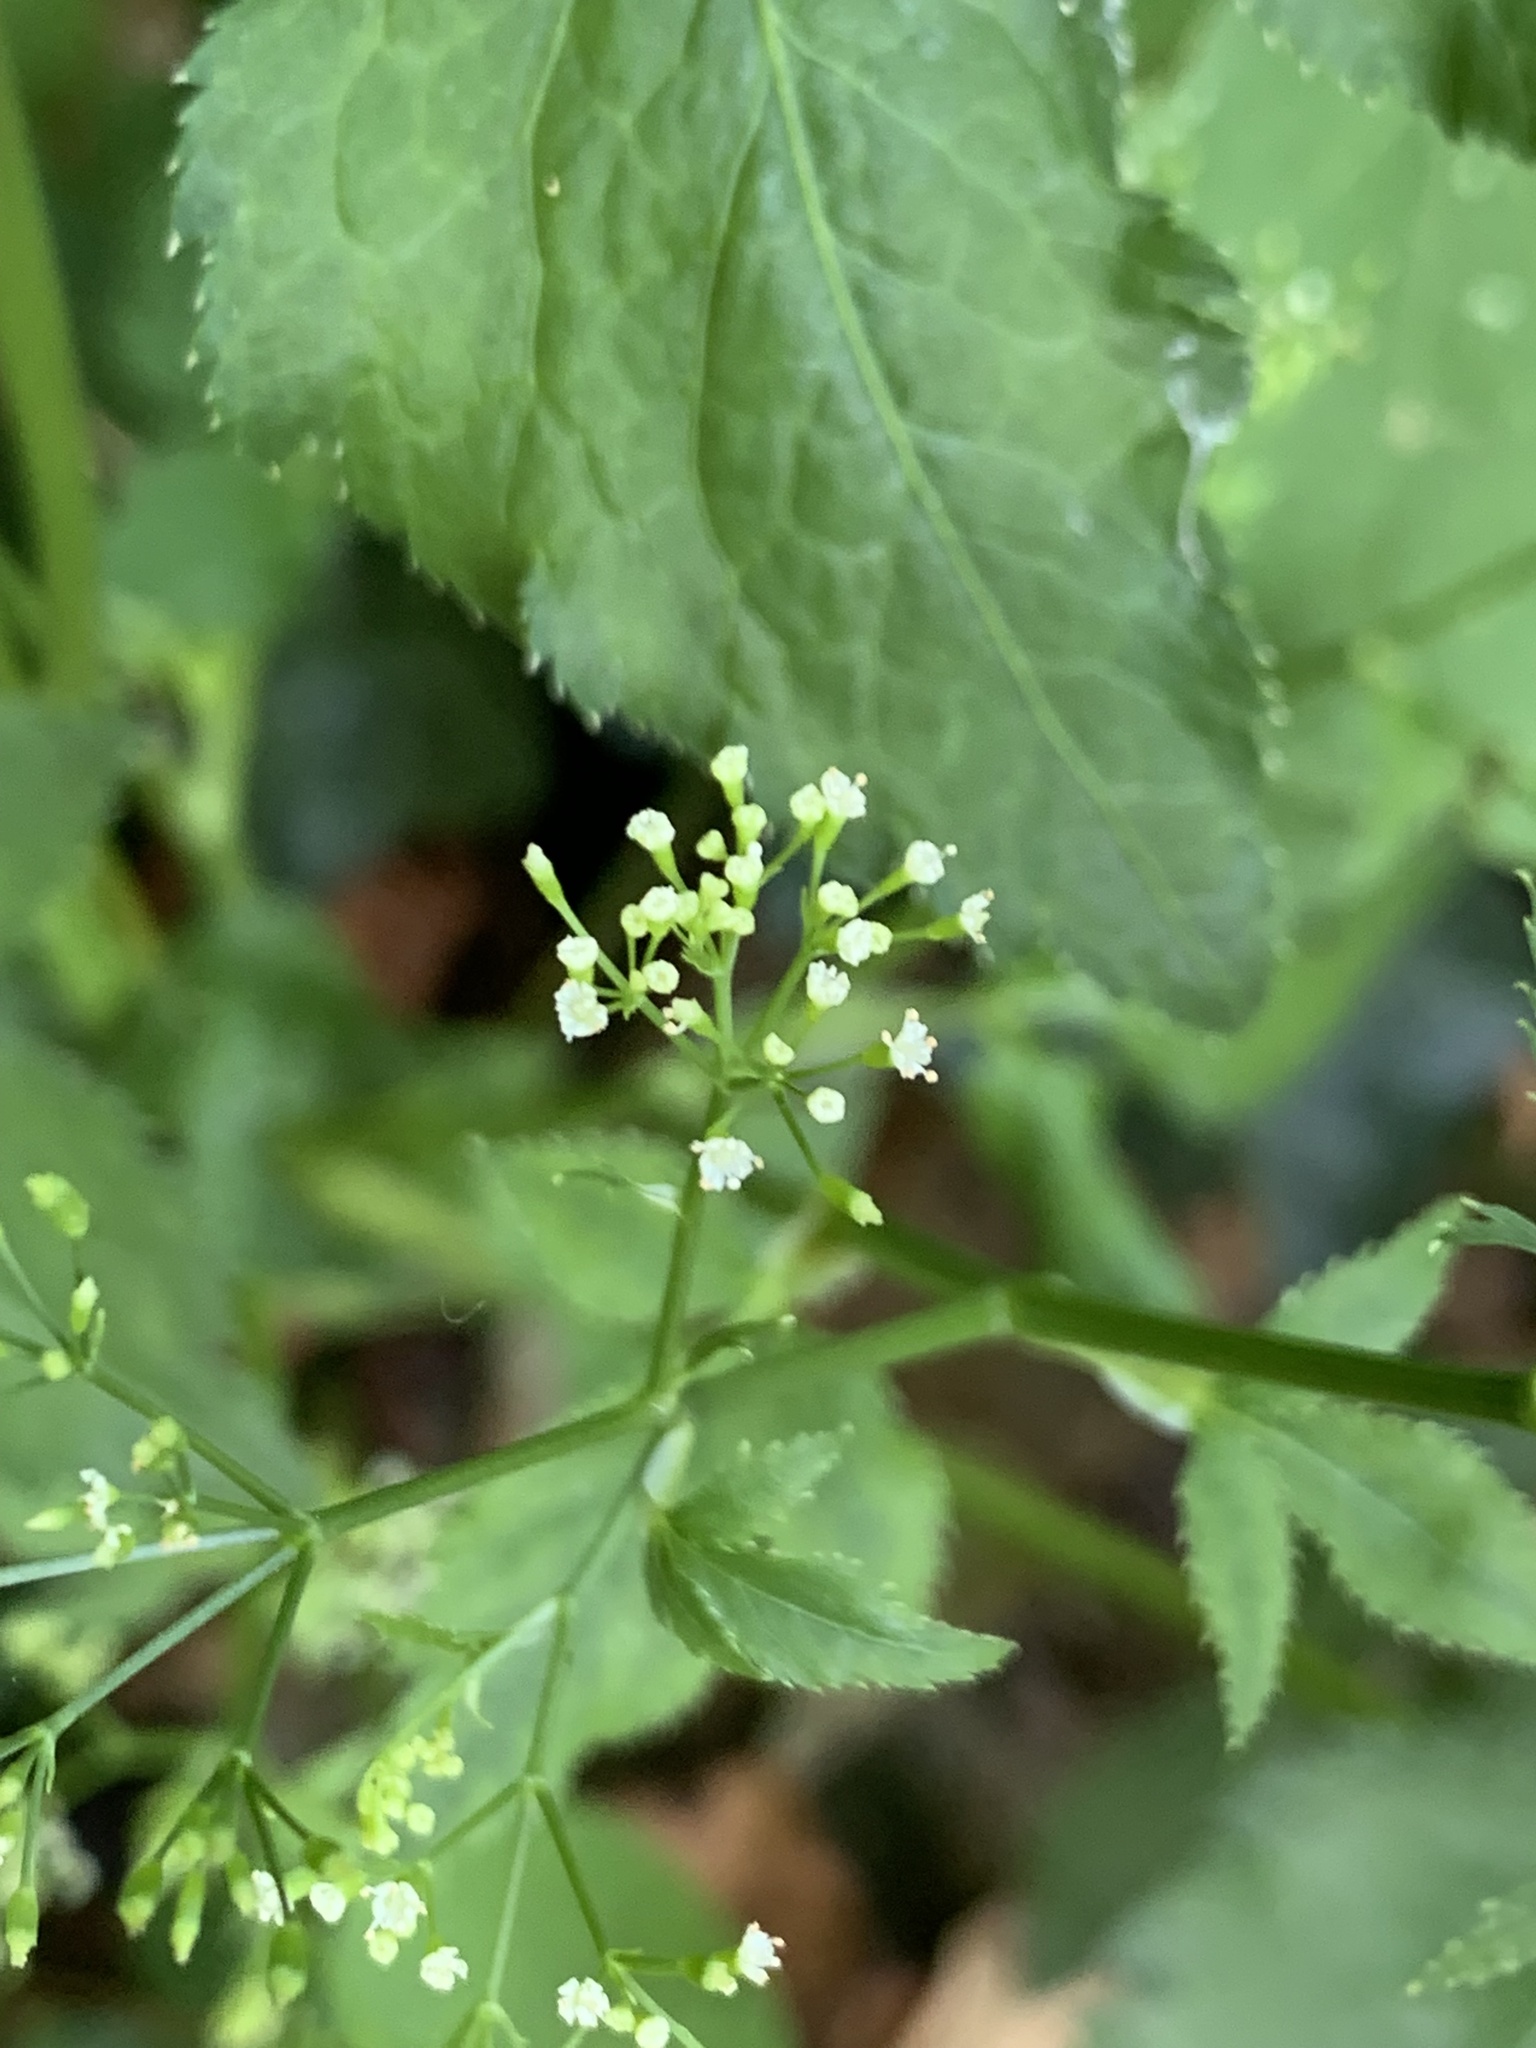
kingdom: Plantae
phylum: Tracheophyta
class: Magnoliopsida
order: Apiales
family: Apiaceae
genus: Cryptotaenia
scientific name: Cryptotaenia canadensis
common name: Honewort
